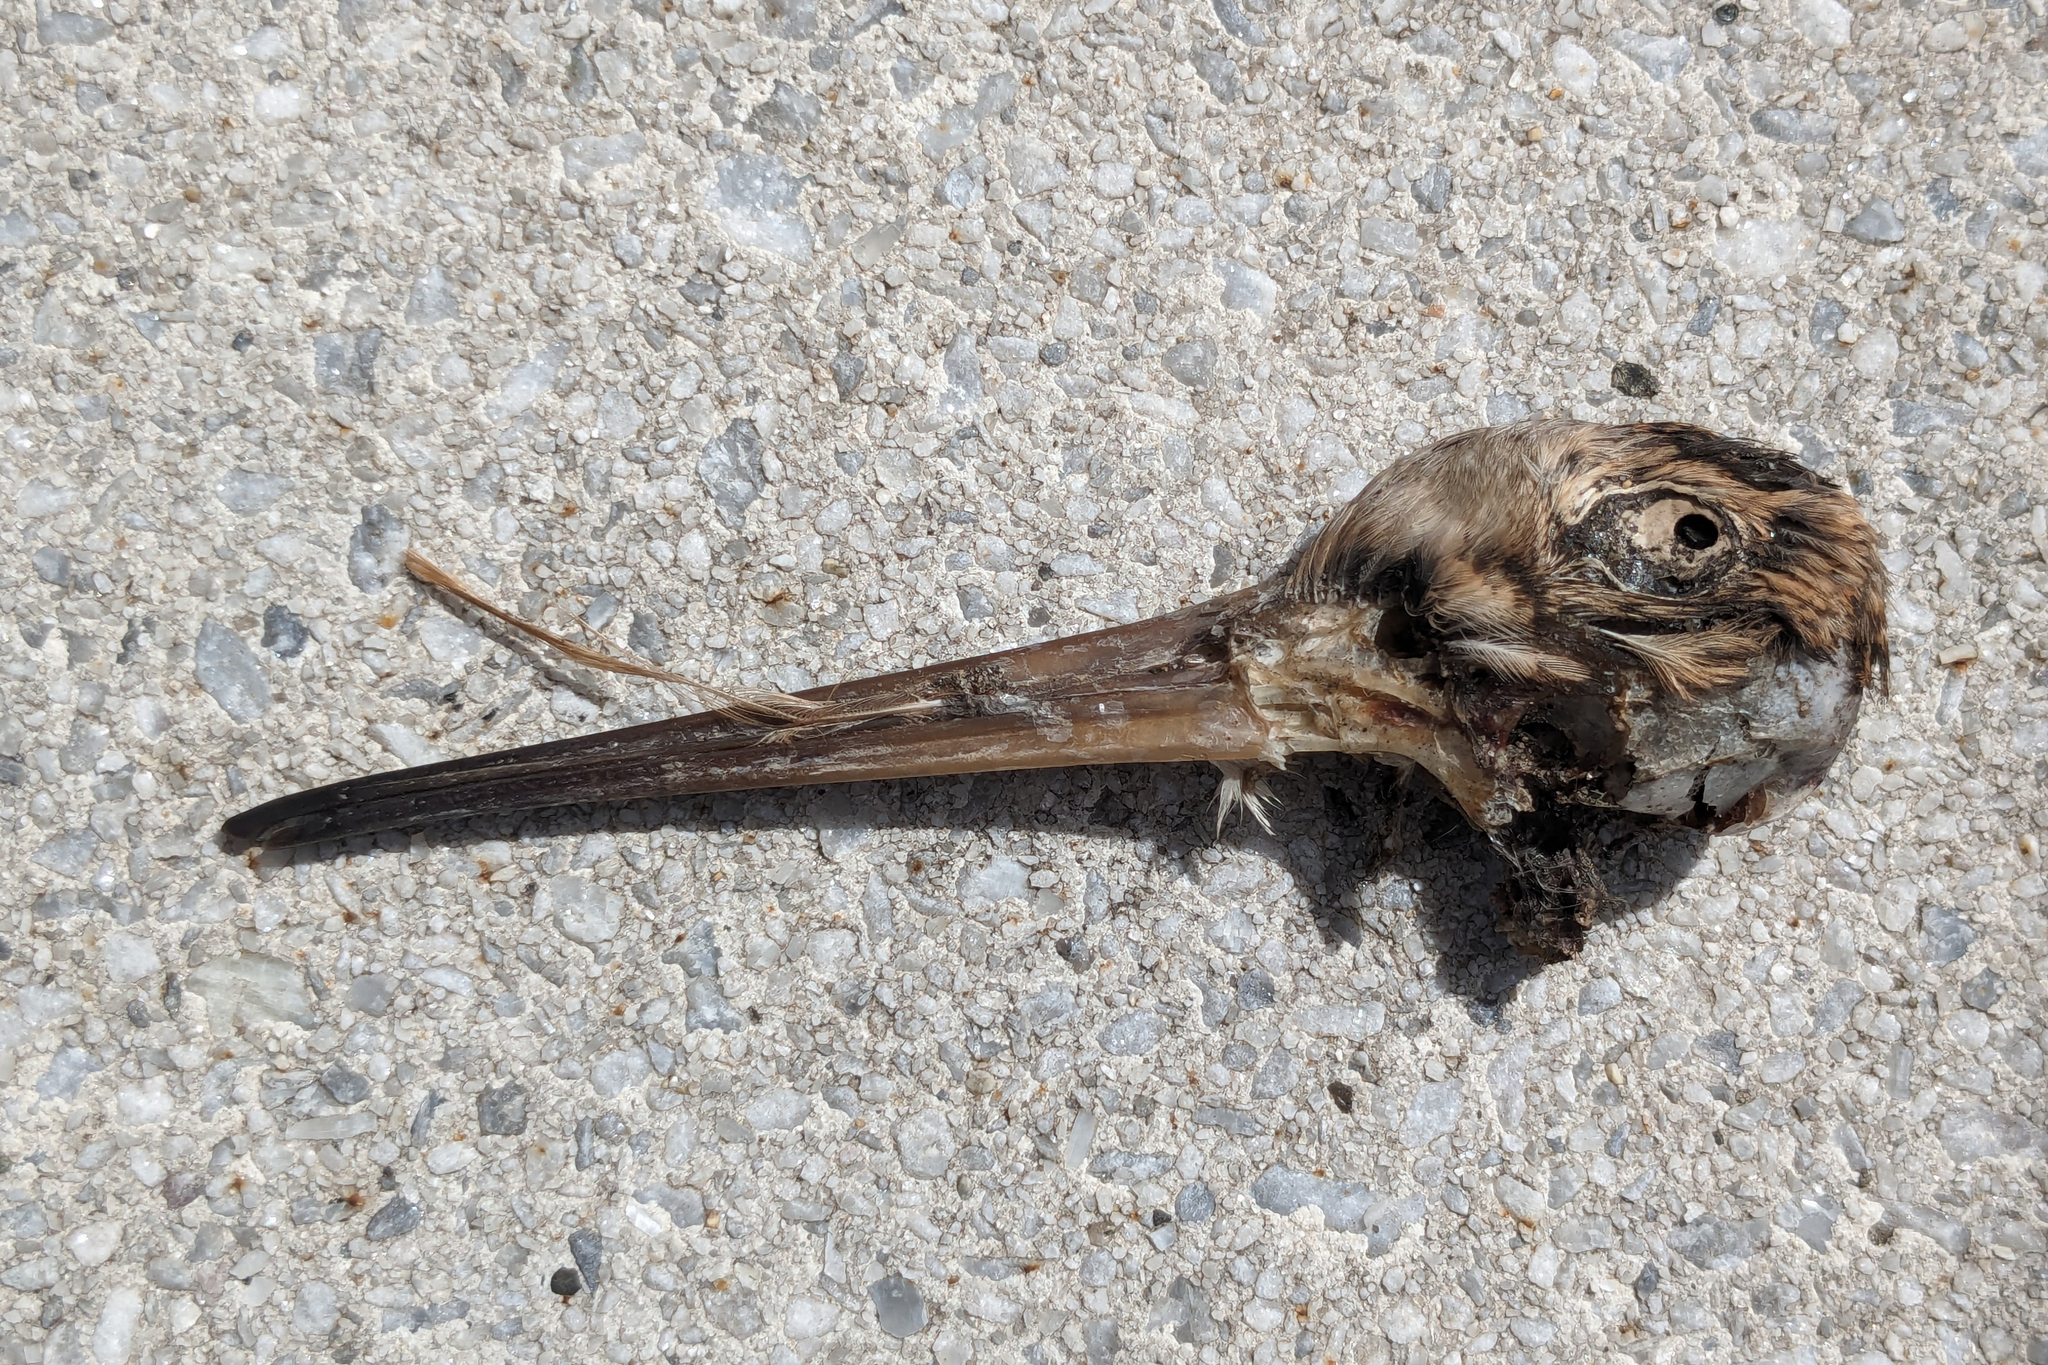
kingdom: Animalia
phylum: Chordata
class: Aves
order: Charadriiformes
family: Scolopacidae
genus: Scolopax
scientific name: Scolopax minor
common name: American woodcock
